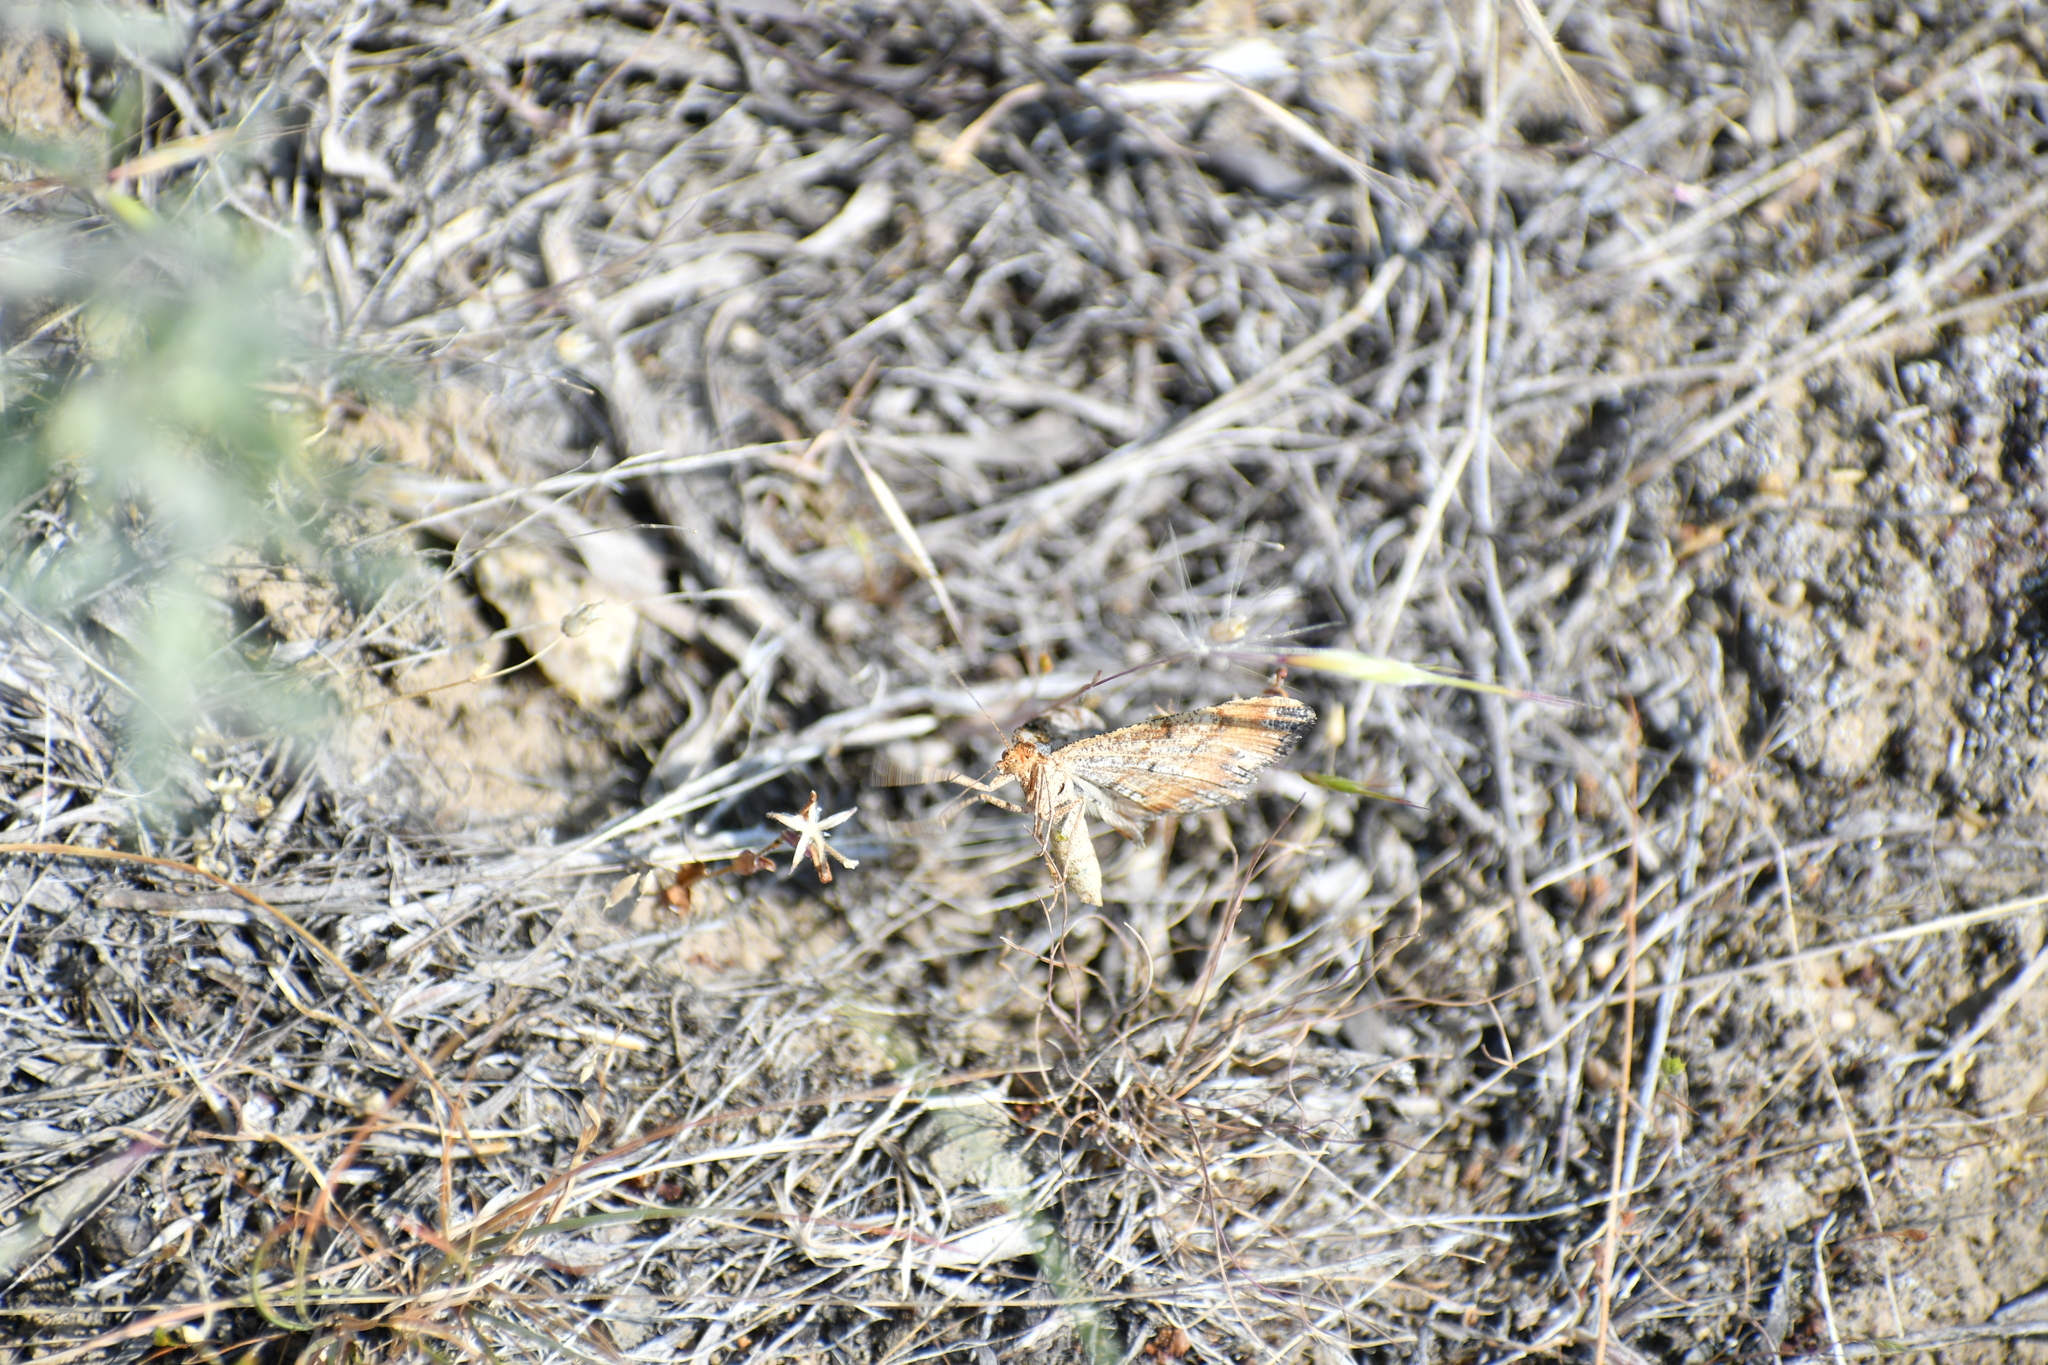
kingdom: Animalia
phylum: Arthropoda
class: Insecta
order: Lepidoptera
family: Geometridae
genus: Macaria
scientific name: Macaria adonis
